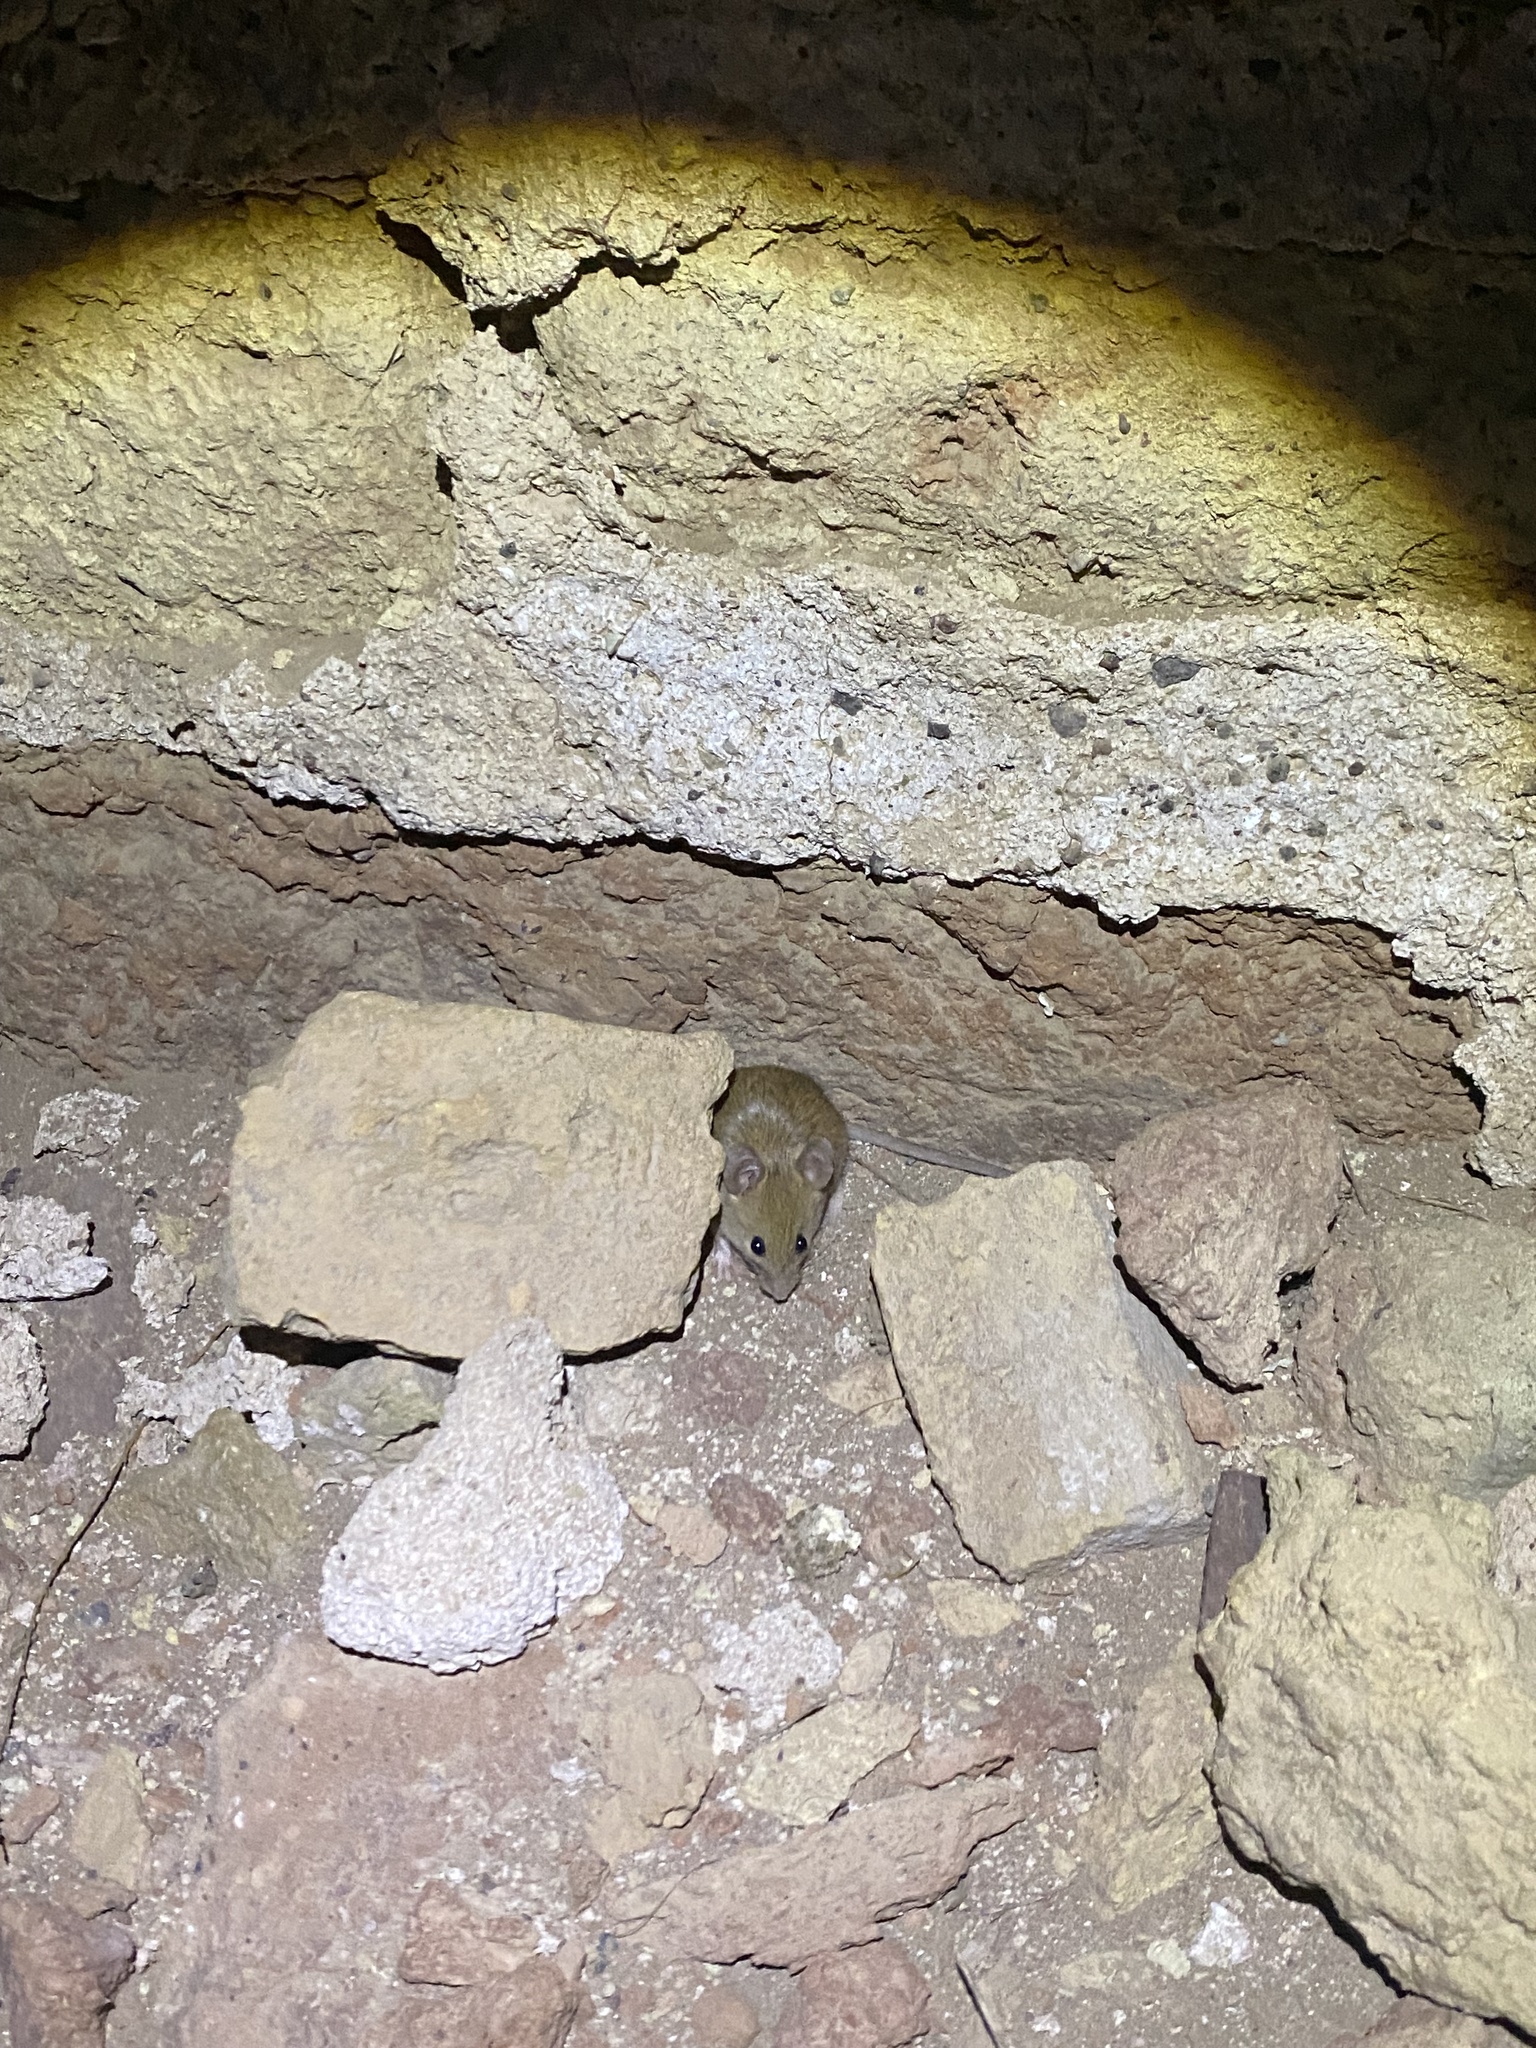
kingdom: Animalia
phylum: Chordata
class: Mammalia
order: Rodentia
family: Muridae
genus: Mus
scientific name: Mus musculus
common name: House mouse
